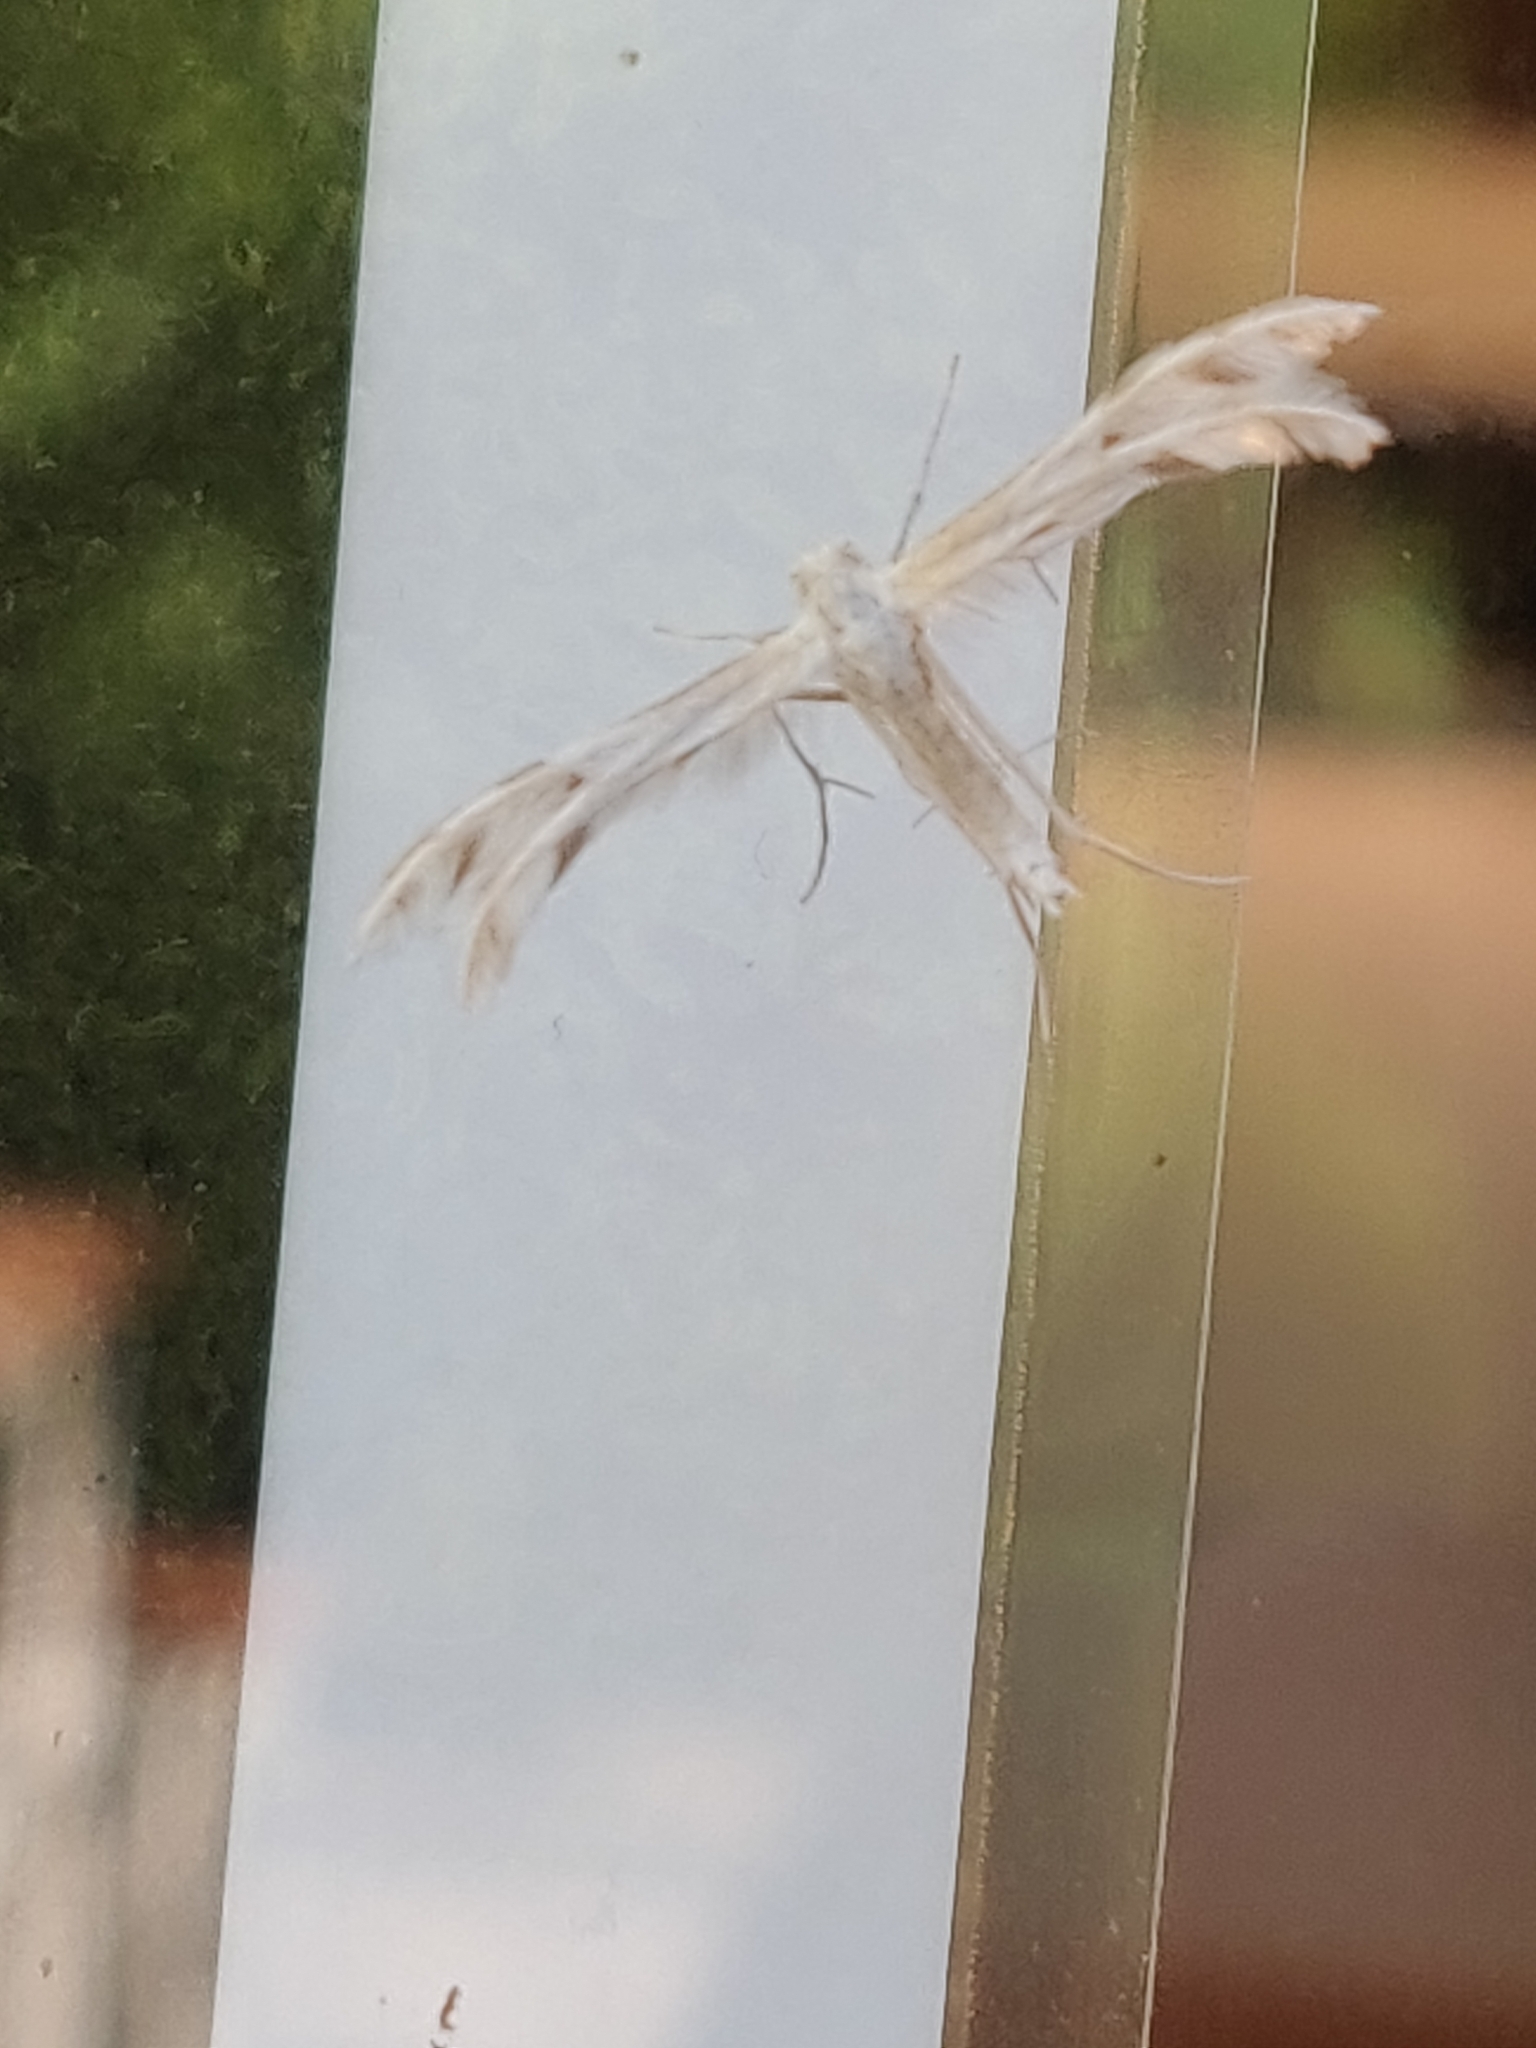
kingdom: Animalia
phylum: Arthropoda
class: Insecta
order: Lepidoptera
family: Pterophoridae
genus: Wheeleria
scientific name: Wheeleria spilodactylus
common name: Horehound plume
